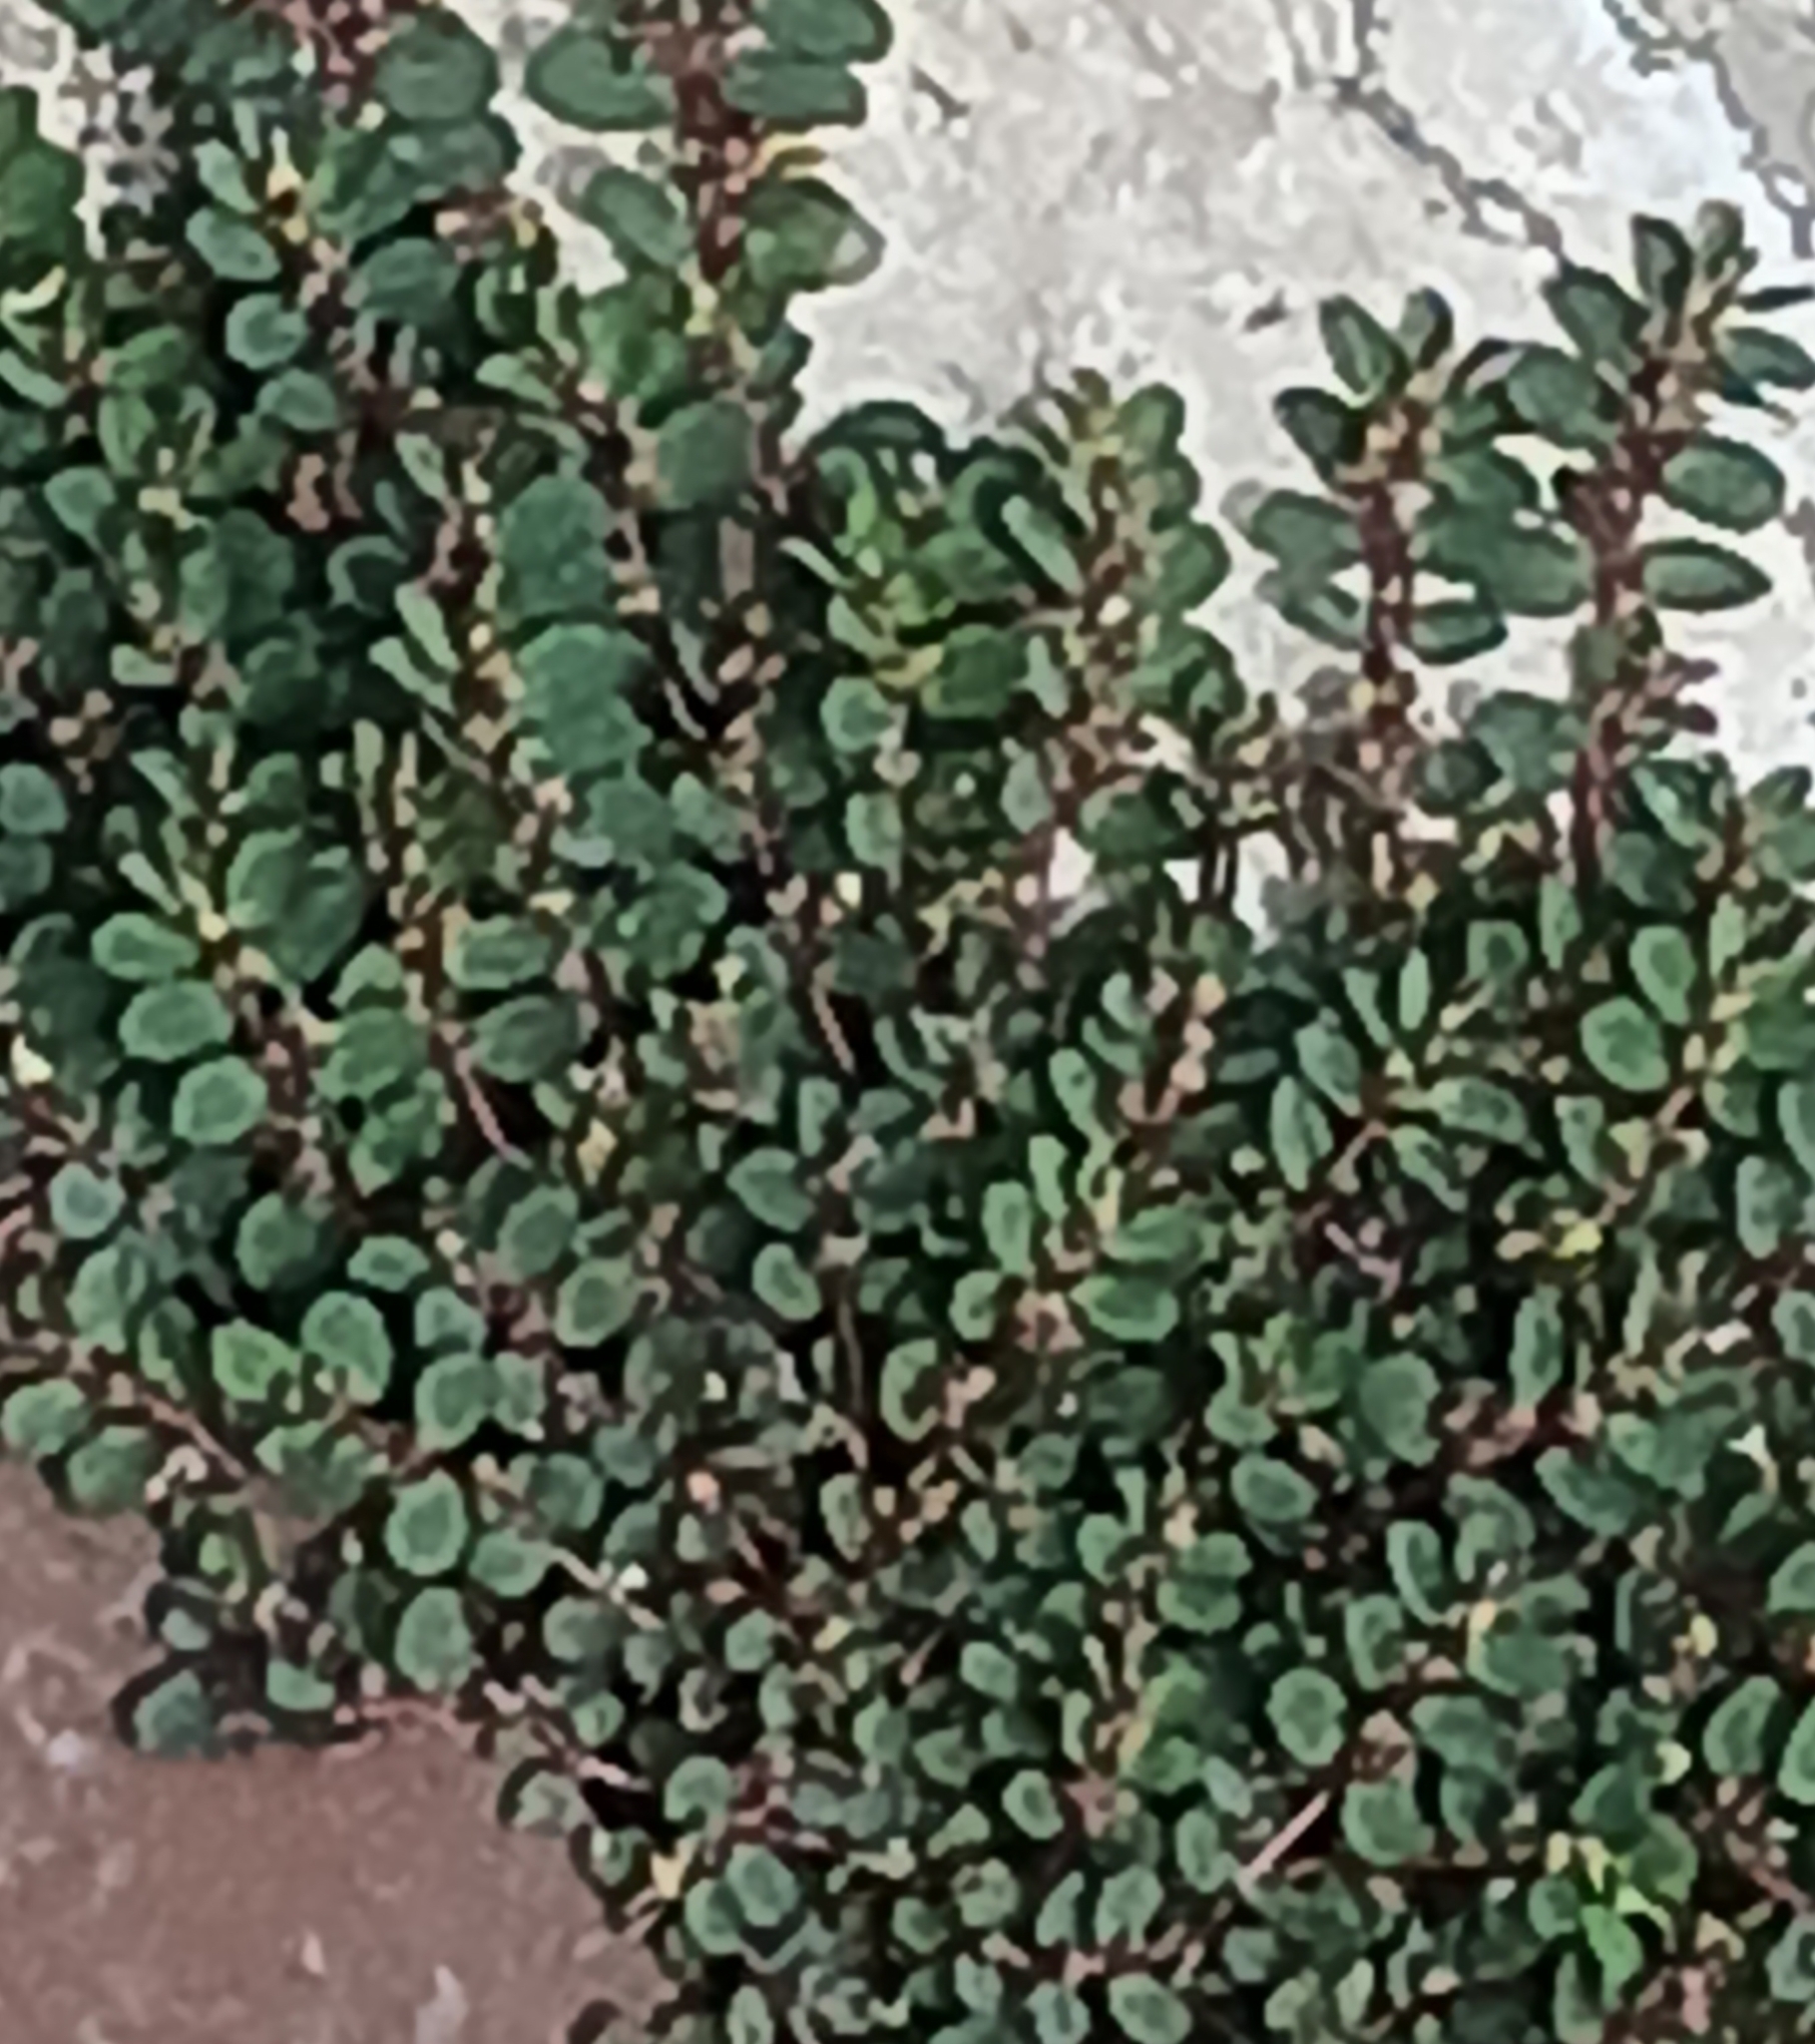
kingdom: Plantae
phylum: Tracheophyta
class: Magnoliopsida
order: Malpighiales
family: Euphorbiaceae
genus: Euphorbia
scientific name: Euphorbia prostrata
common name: Prostrate sandmat
